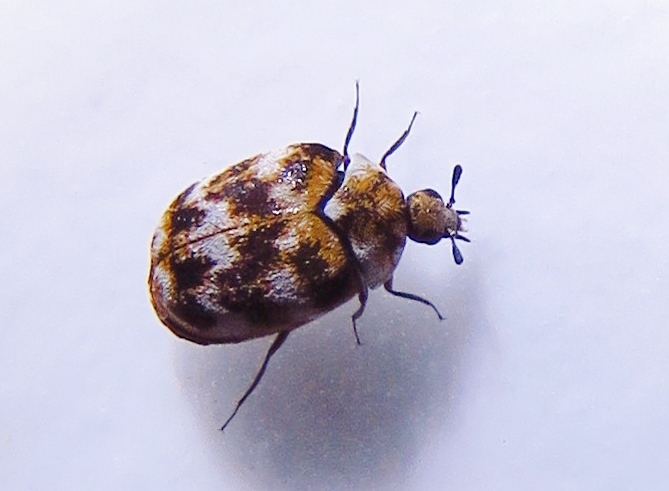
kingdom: Animalia
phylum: Arthropoda
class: Insecta
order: Coleoptera
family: Dermestidae
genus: Anthrenus
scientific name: Anthrenus verbasci
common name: Varied carpet beetle
